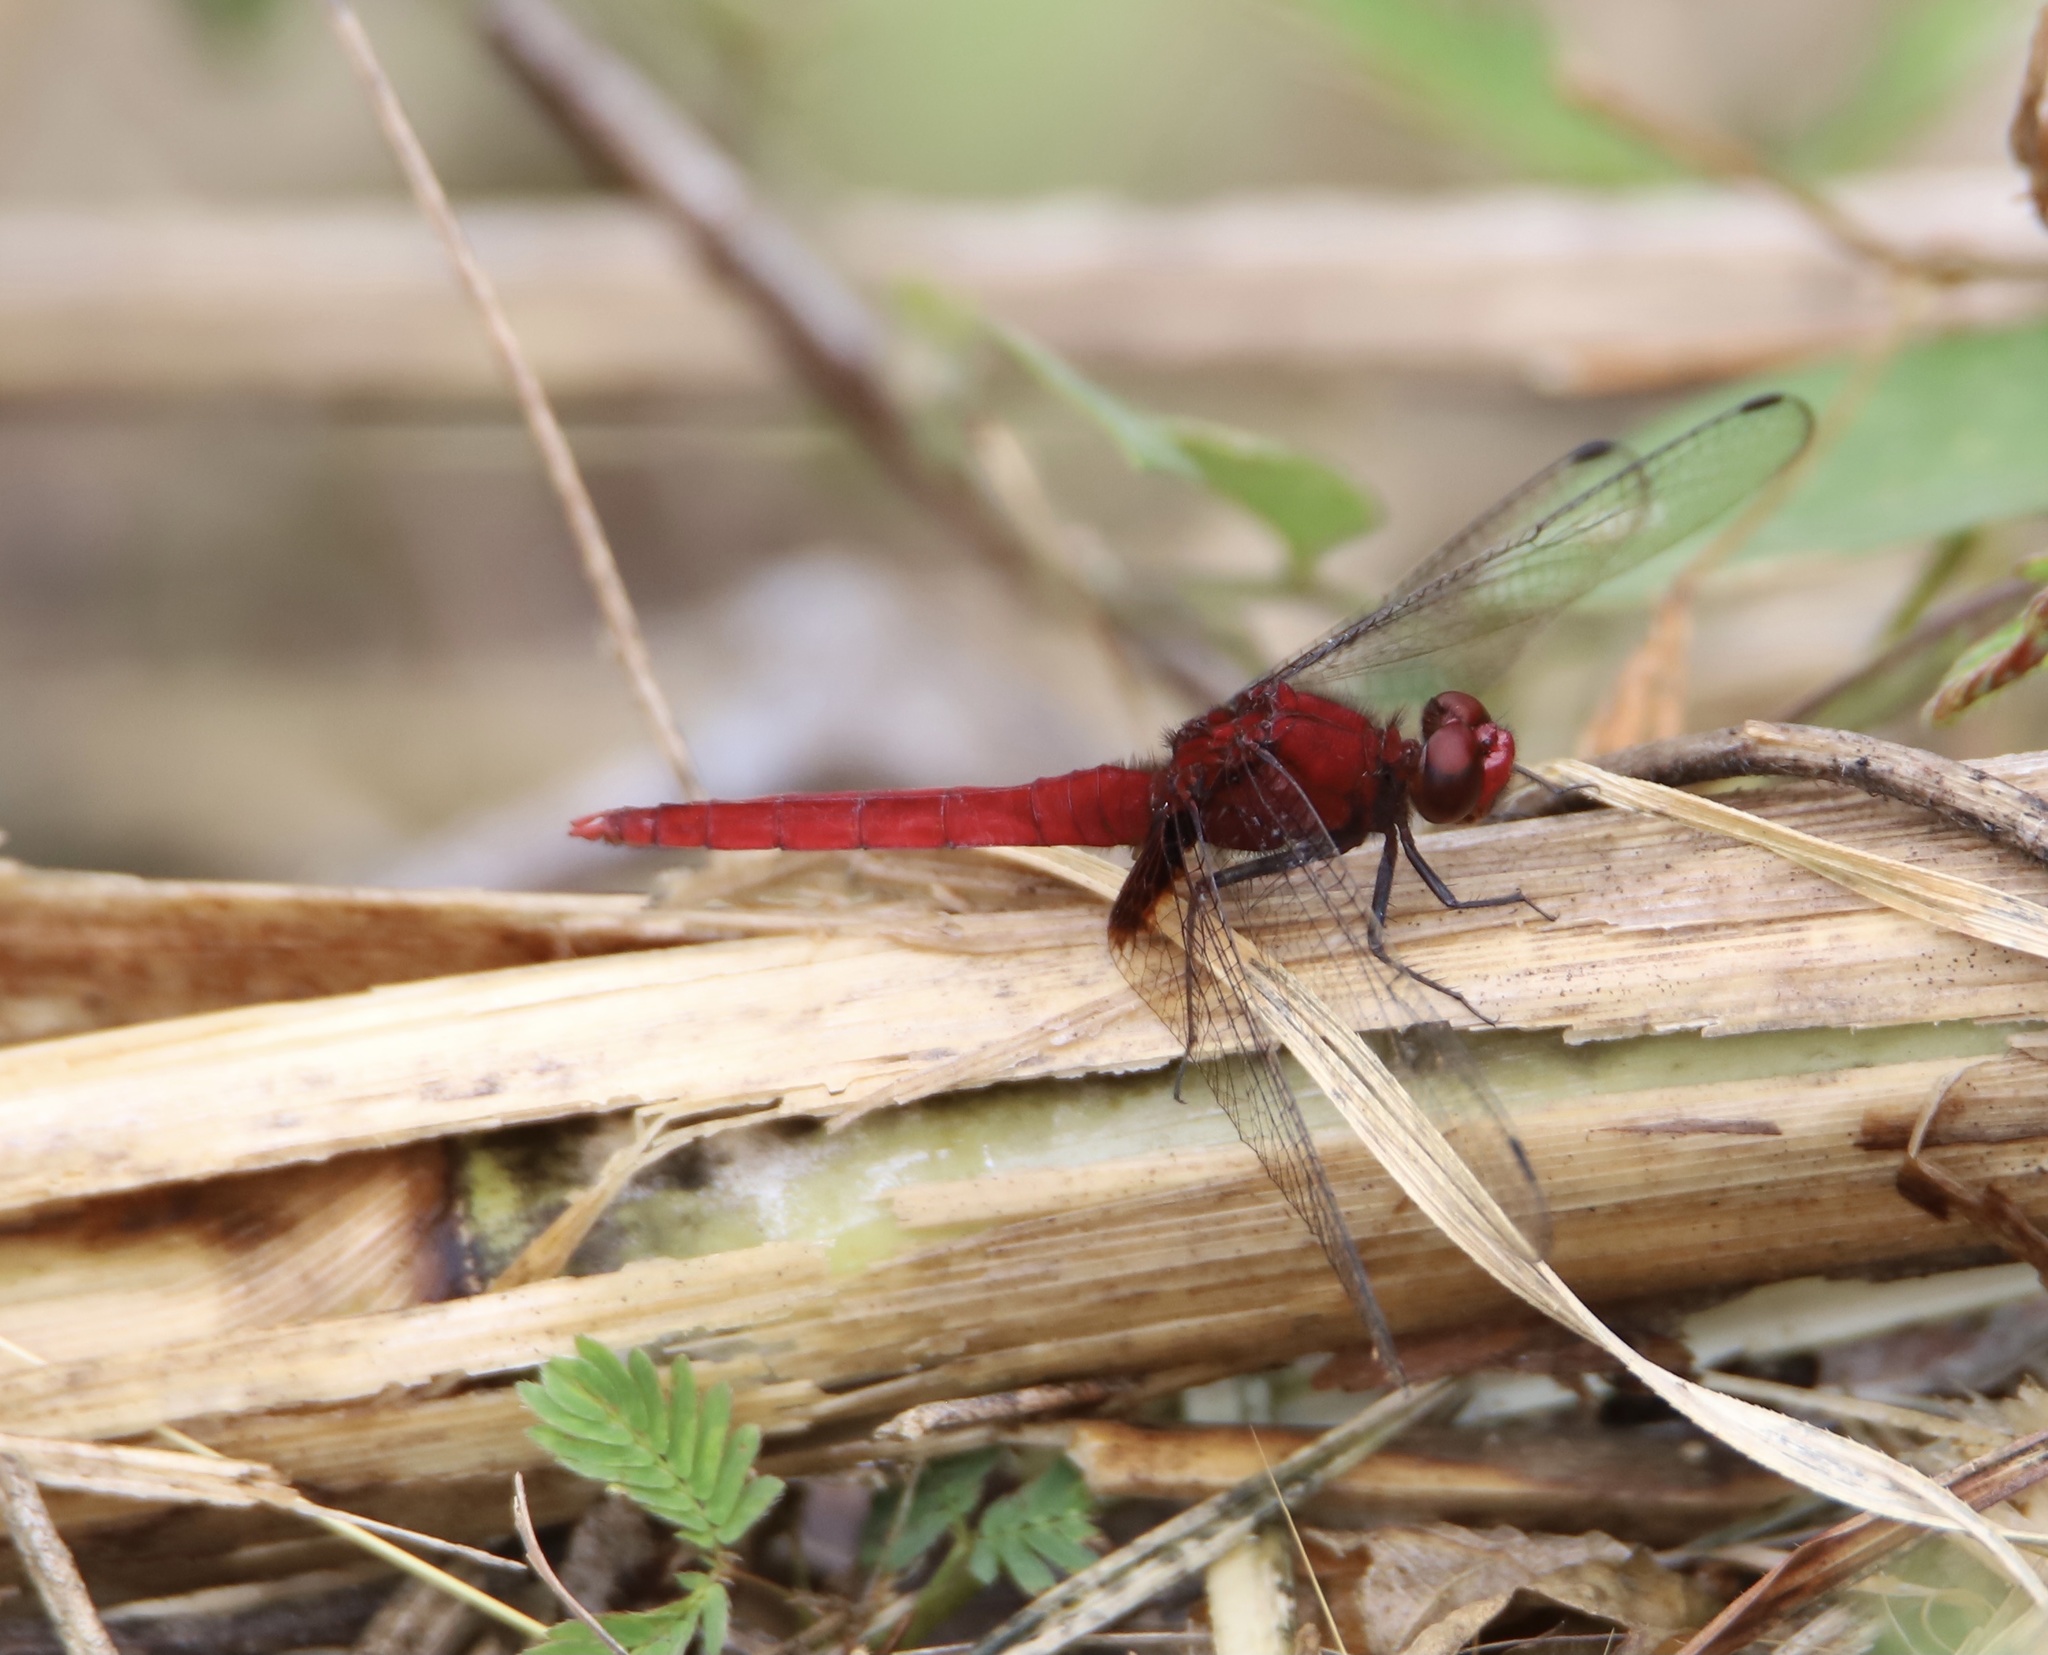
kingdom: Animalia
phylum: Arthropoda
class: Insecta
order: Odonata
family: Libellulidae
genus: Erythemis
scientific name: Erythemis mithroides
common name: Claret pondhawk
